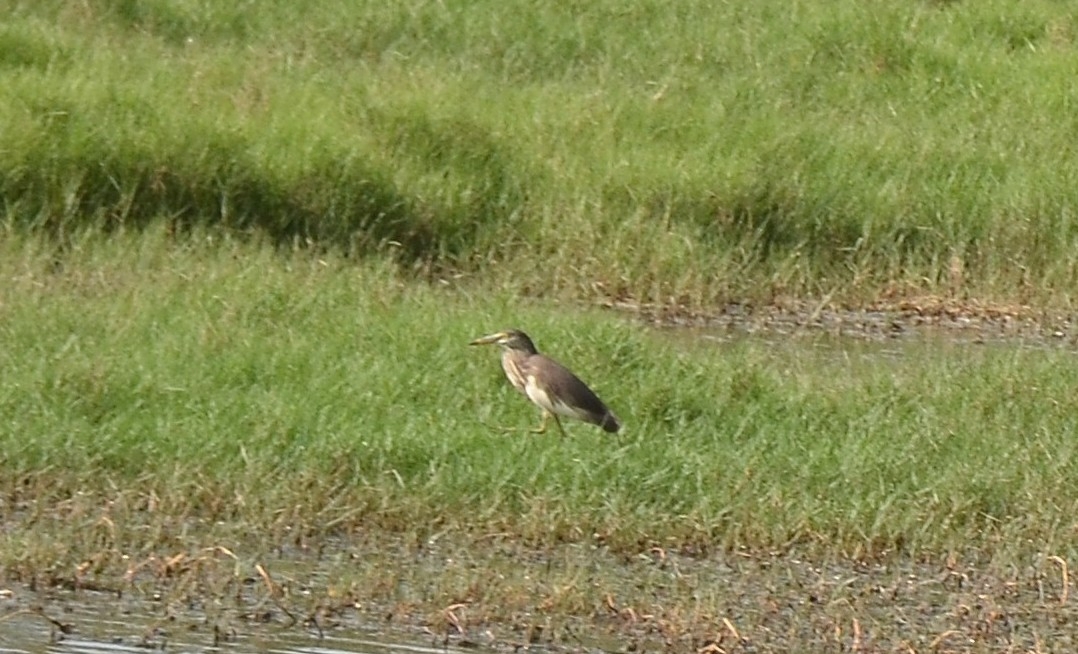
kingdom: Animalia
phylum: Chordata
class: Aves
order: Pelecaniformes
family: Ardeidae
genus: Ardeola
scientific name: Ardeola grayii
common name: Indian pond heron
